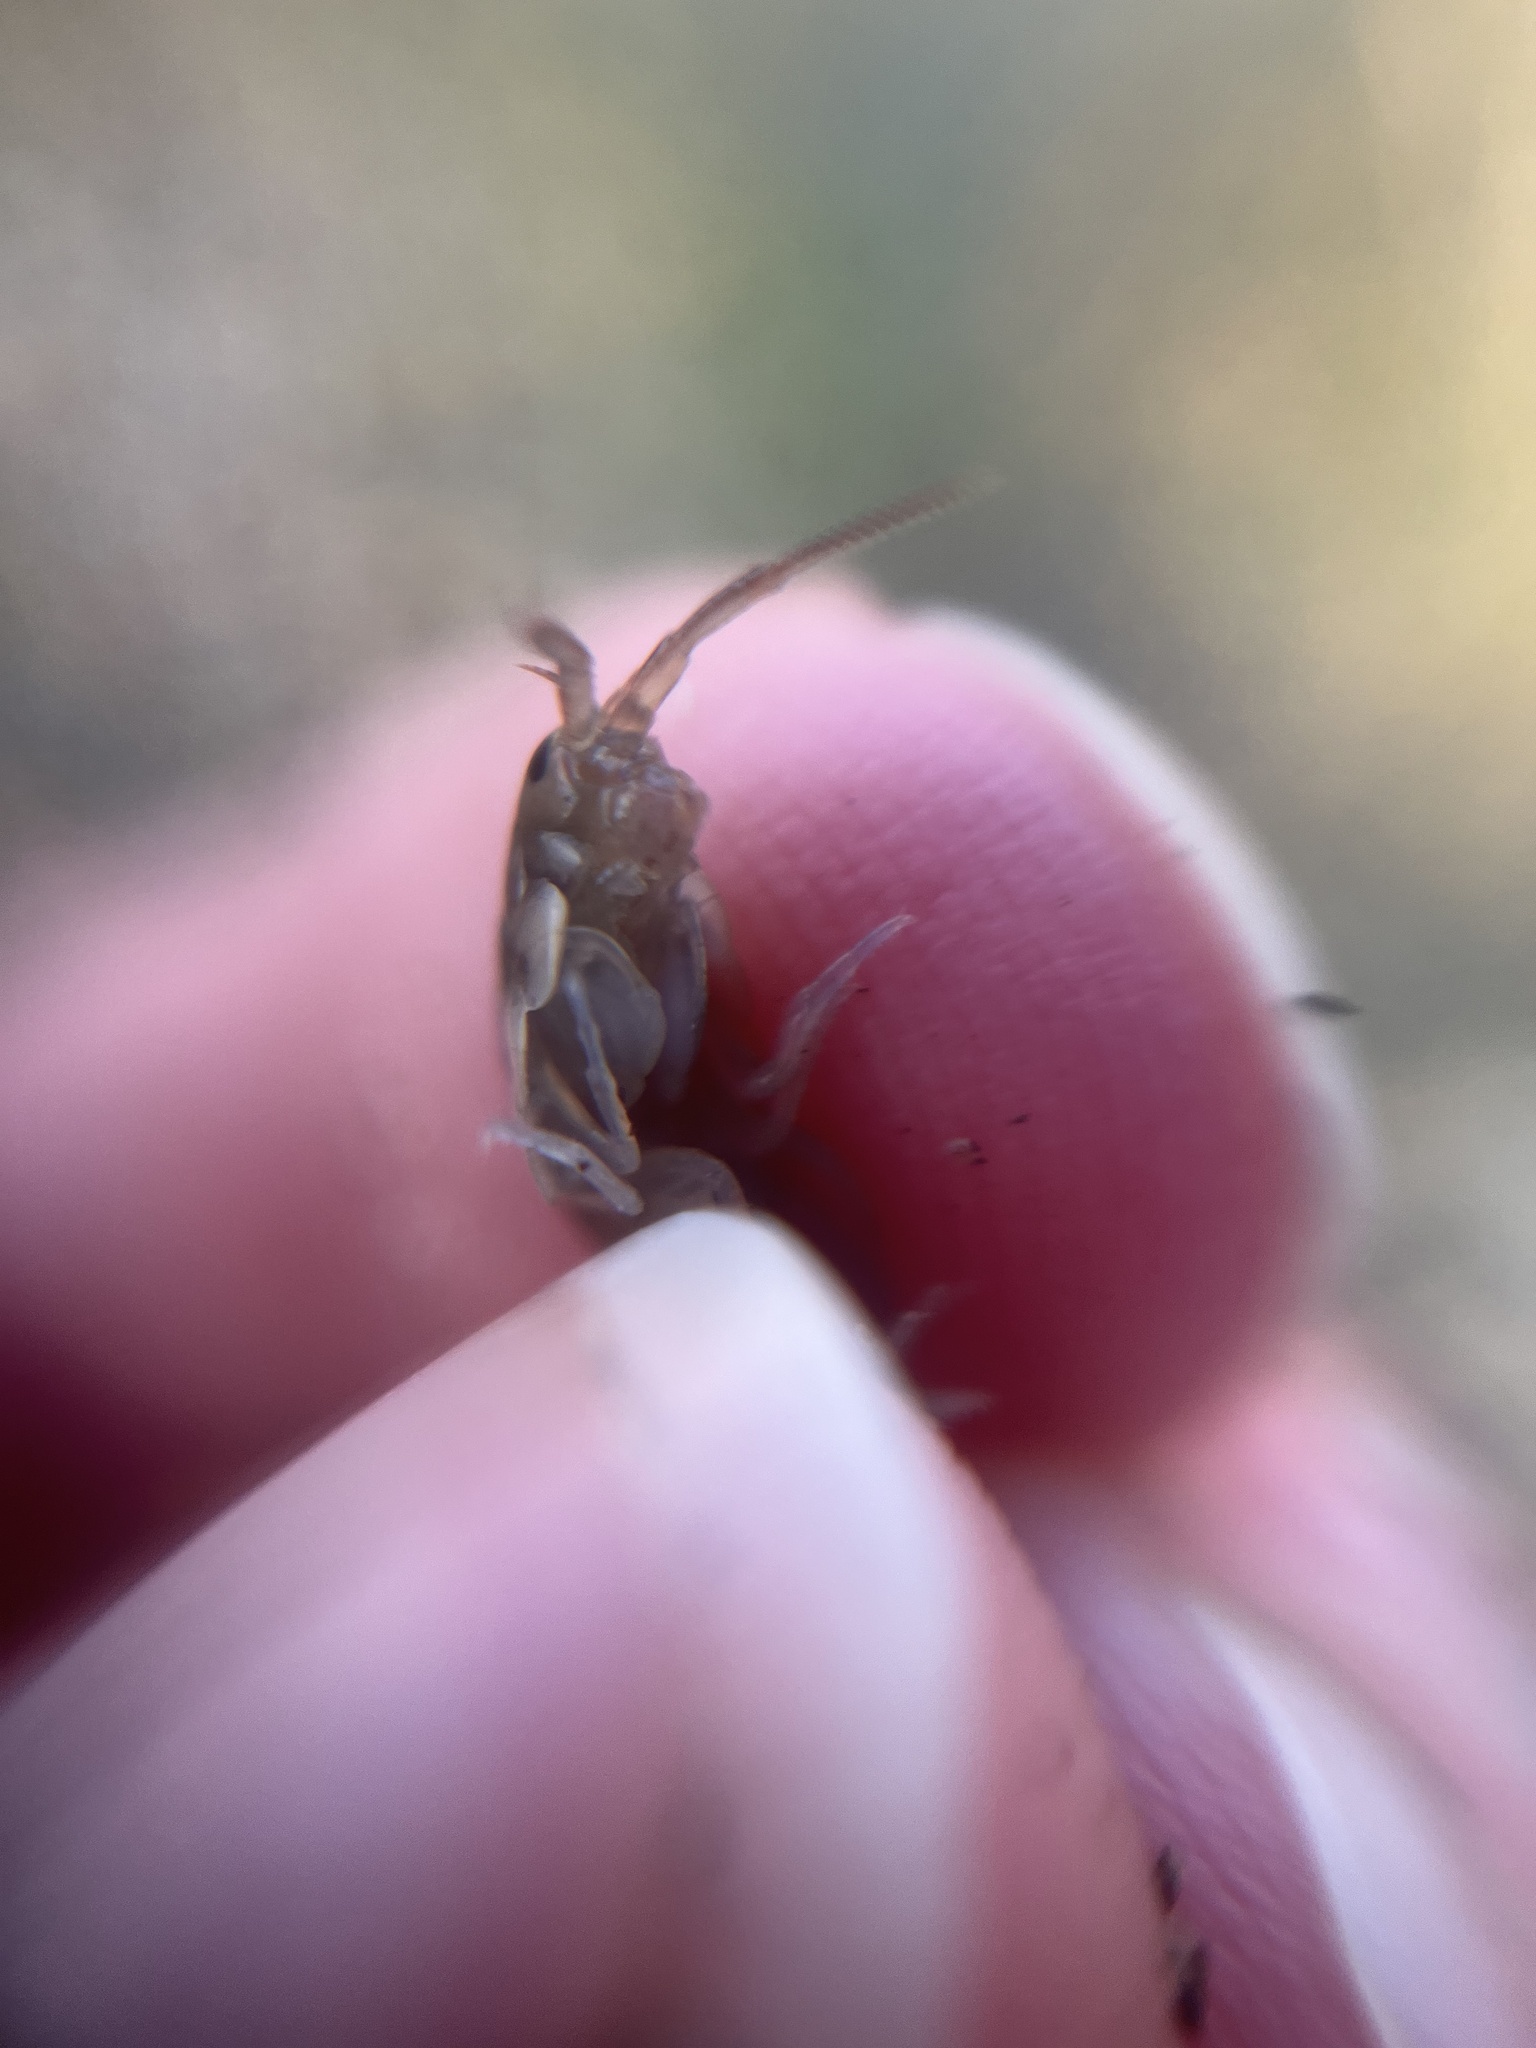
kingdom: Animalia
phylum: Arthropoda
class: Malacostraca
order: Amphipoda
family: Talitridae
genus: Talitrus
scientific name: Talitrus saltator
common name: Sand hopper
